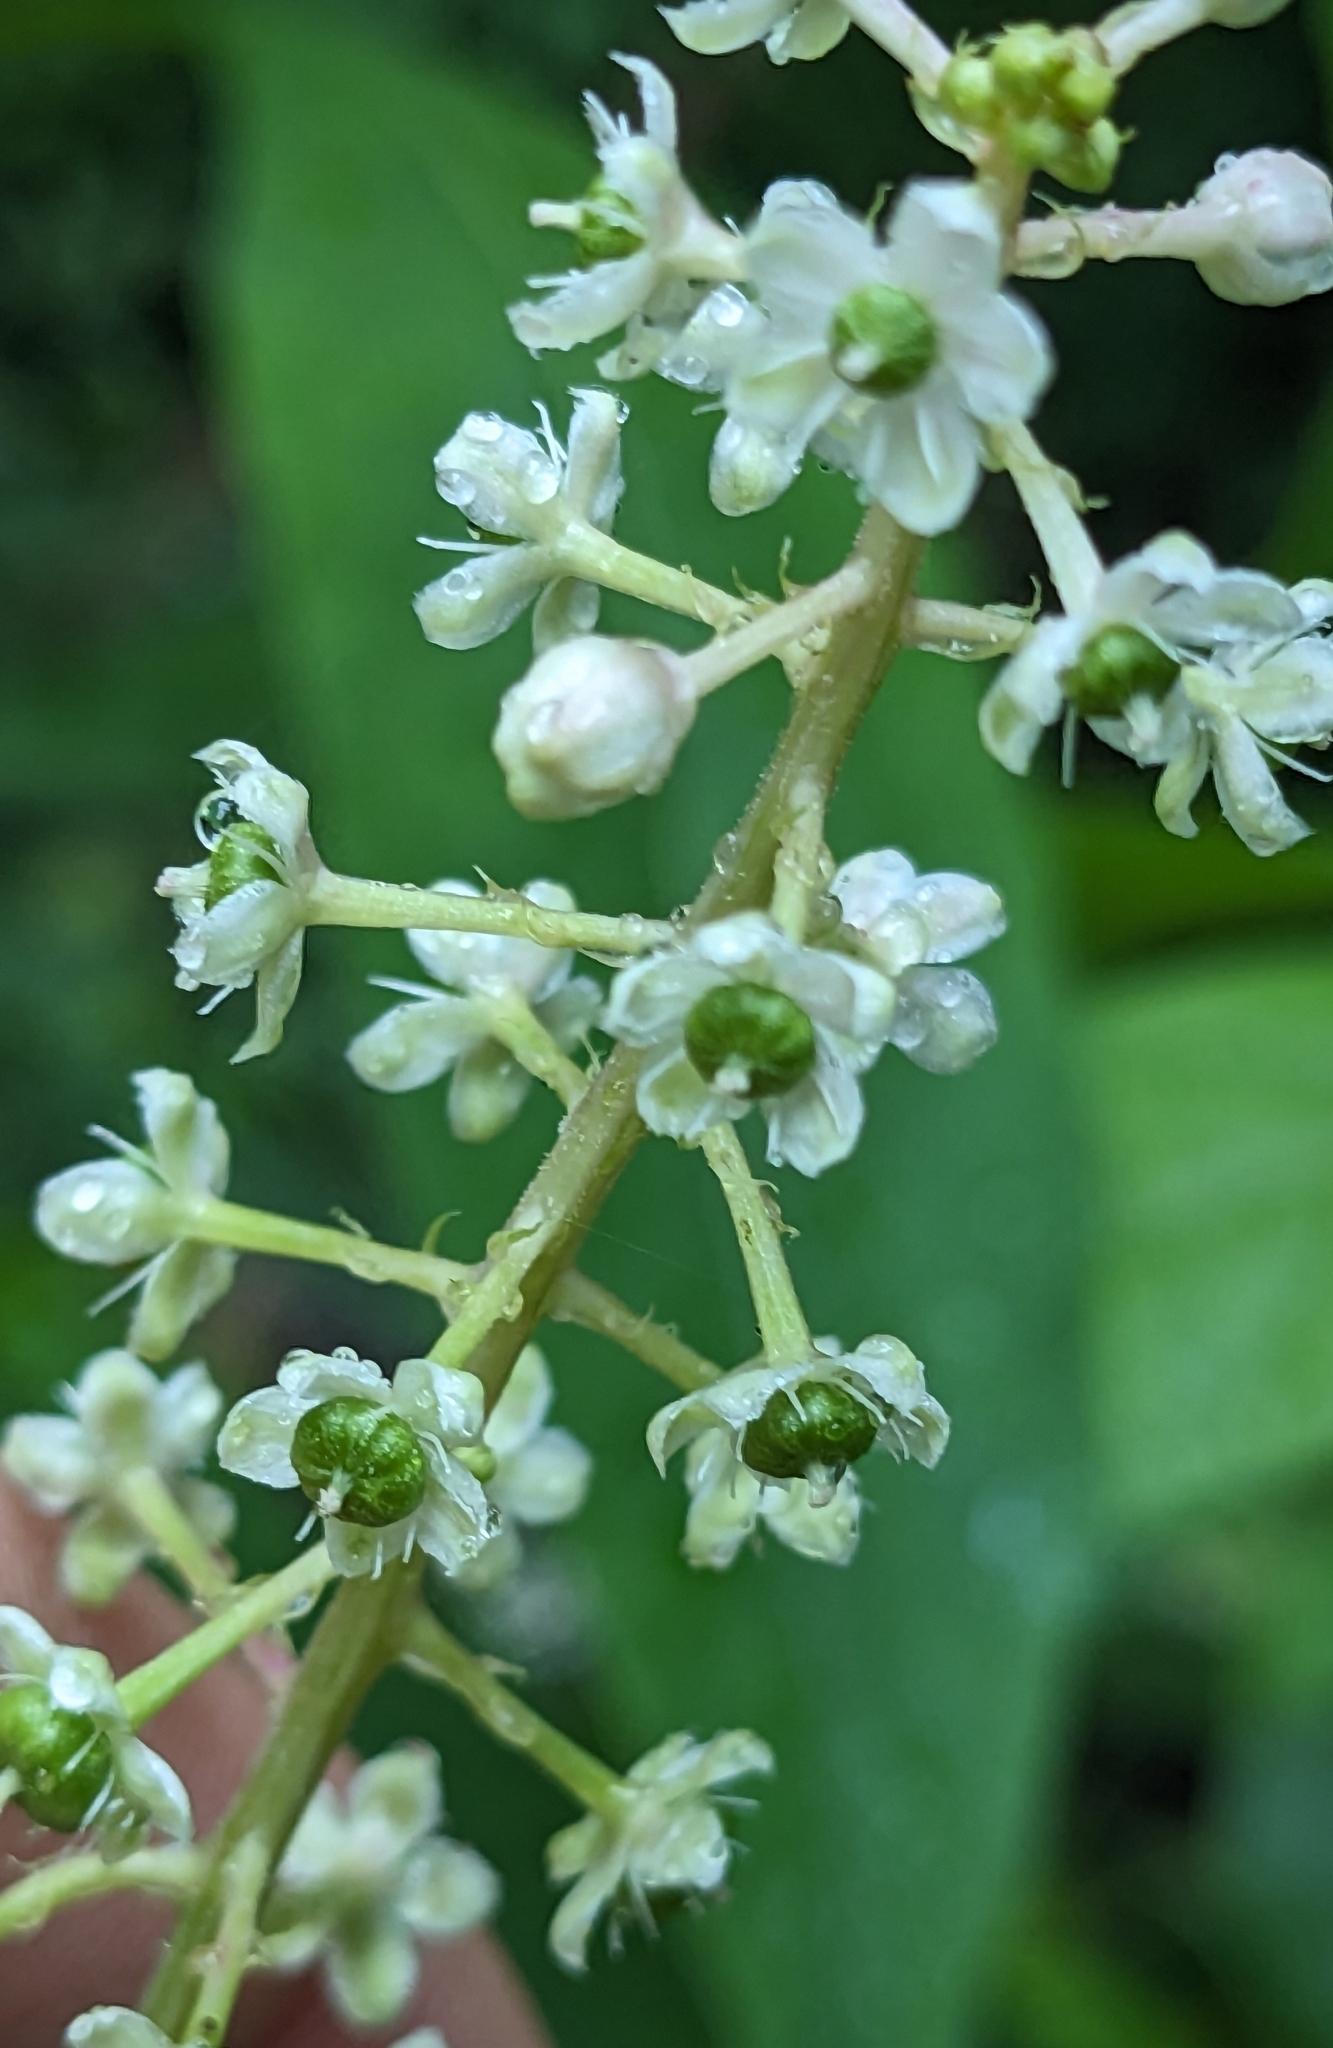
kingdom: Plantae
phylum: Tracheophyta
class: Magnoliopsida
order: Caryophyllales
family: Phytolaccaceae
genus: Phytolacca
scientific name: Phytolacca americana
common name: American pokeweed
